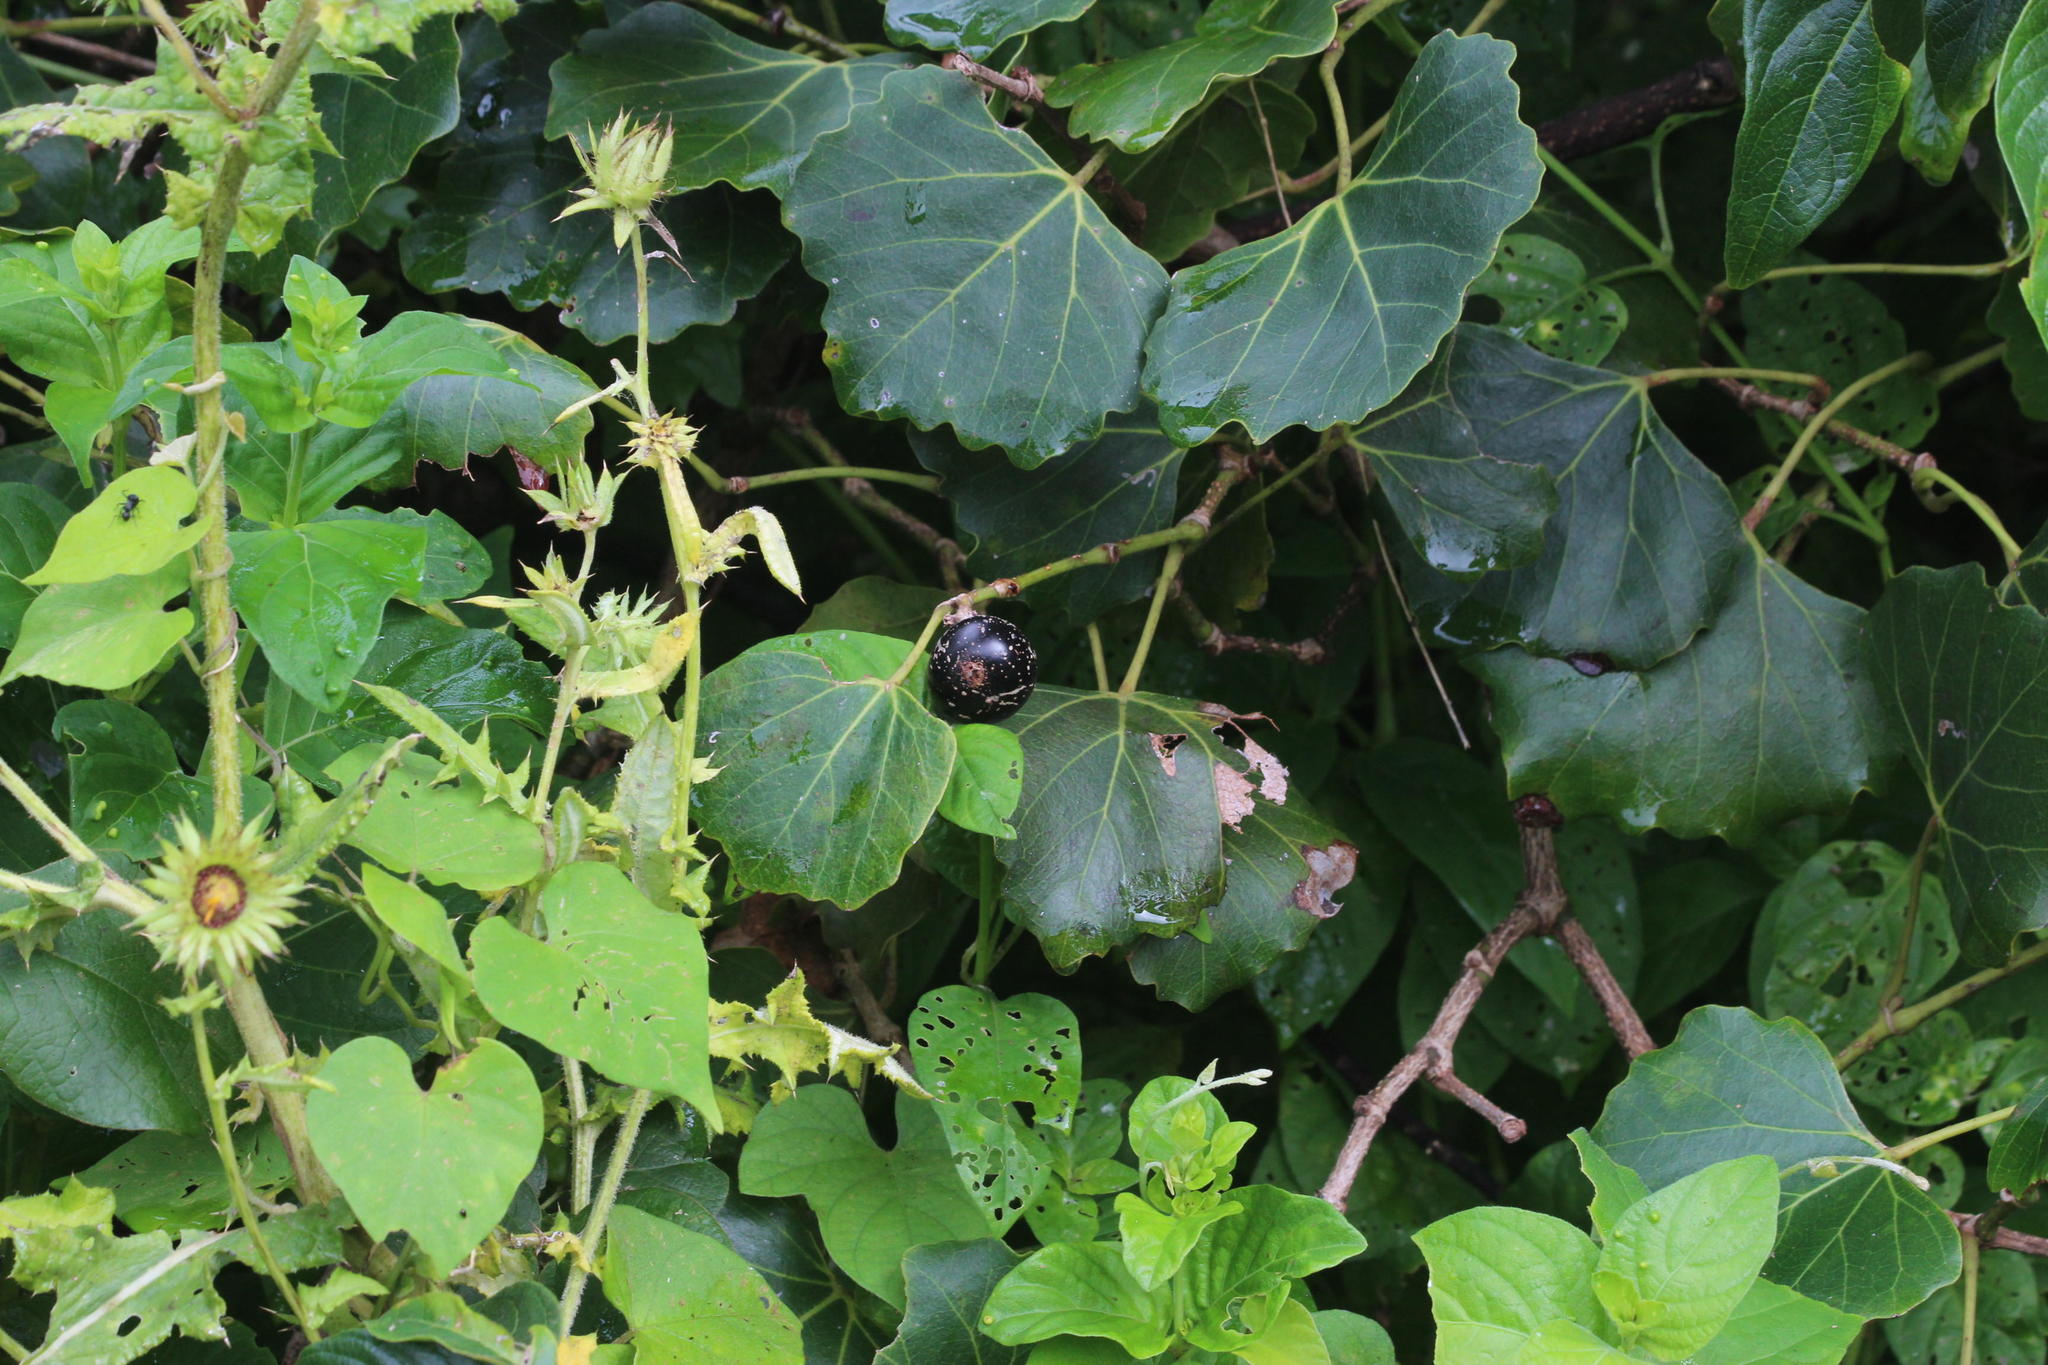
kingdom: Plantae
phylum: Tracheophyta
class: Magnoliopsida
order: Vitales
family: Vitaceae
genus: Rhoicissus
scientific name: Rhoicissus tomentosa
